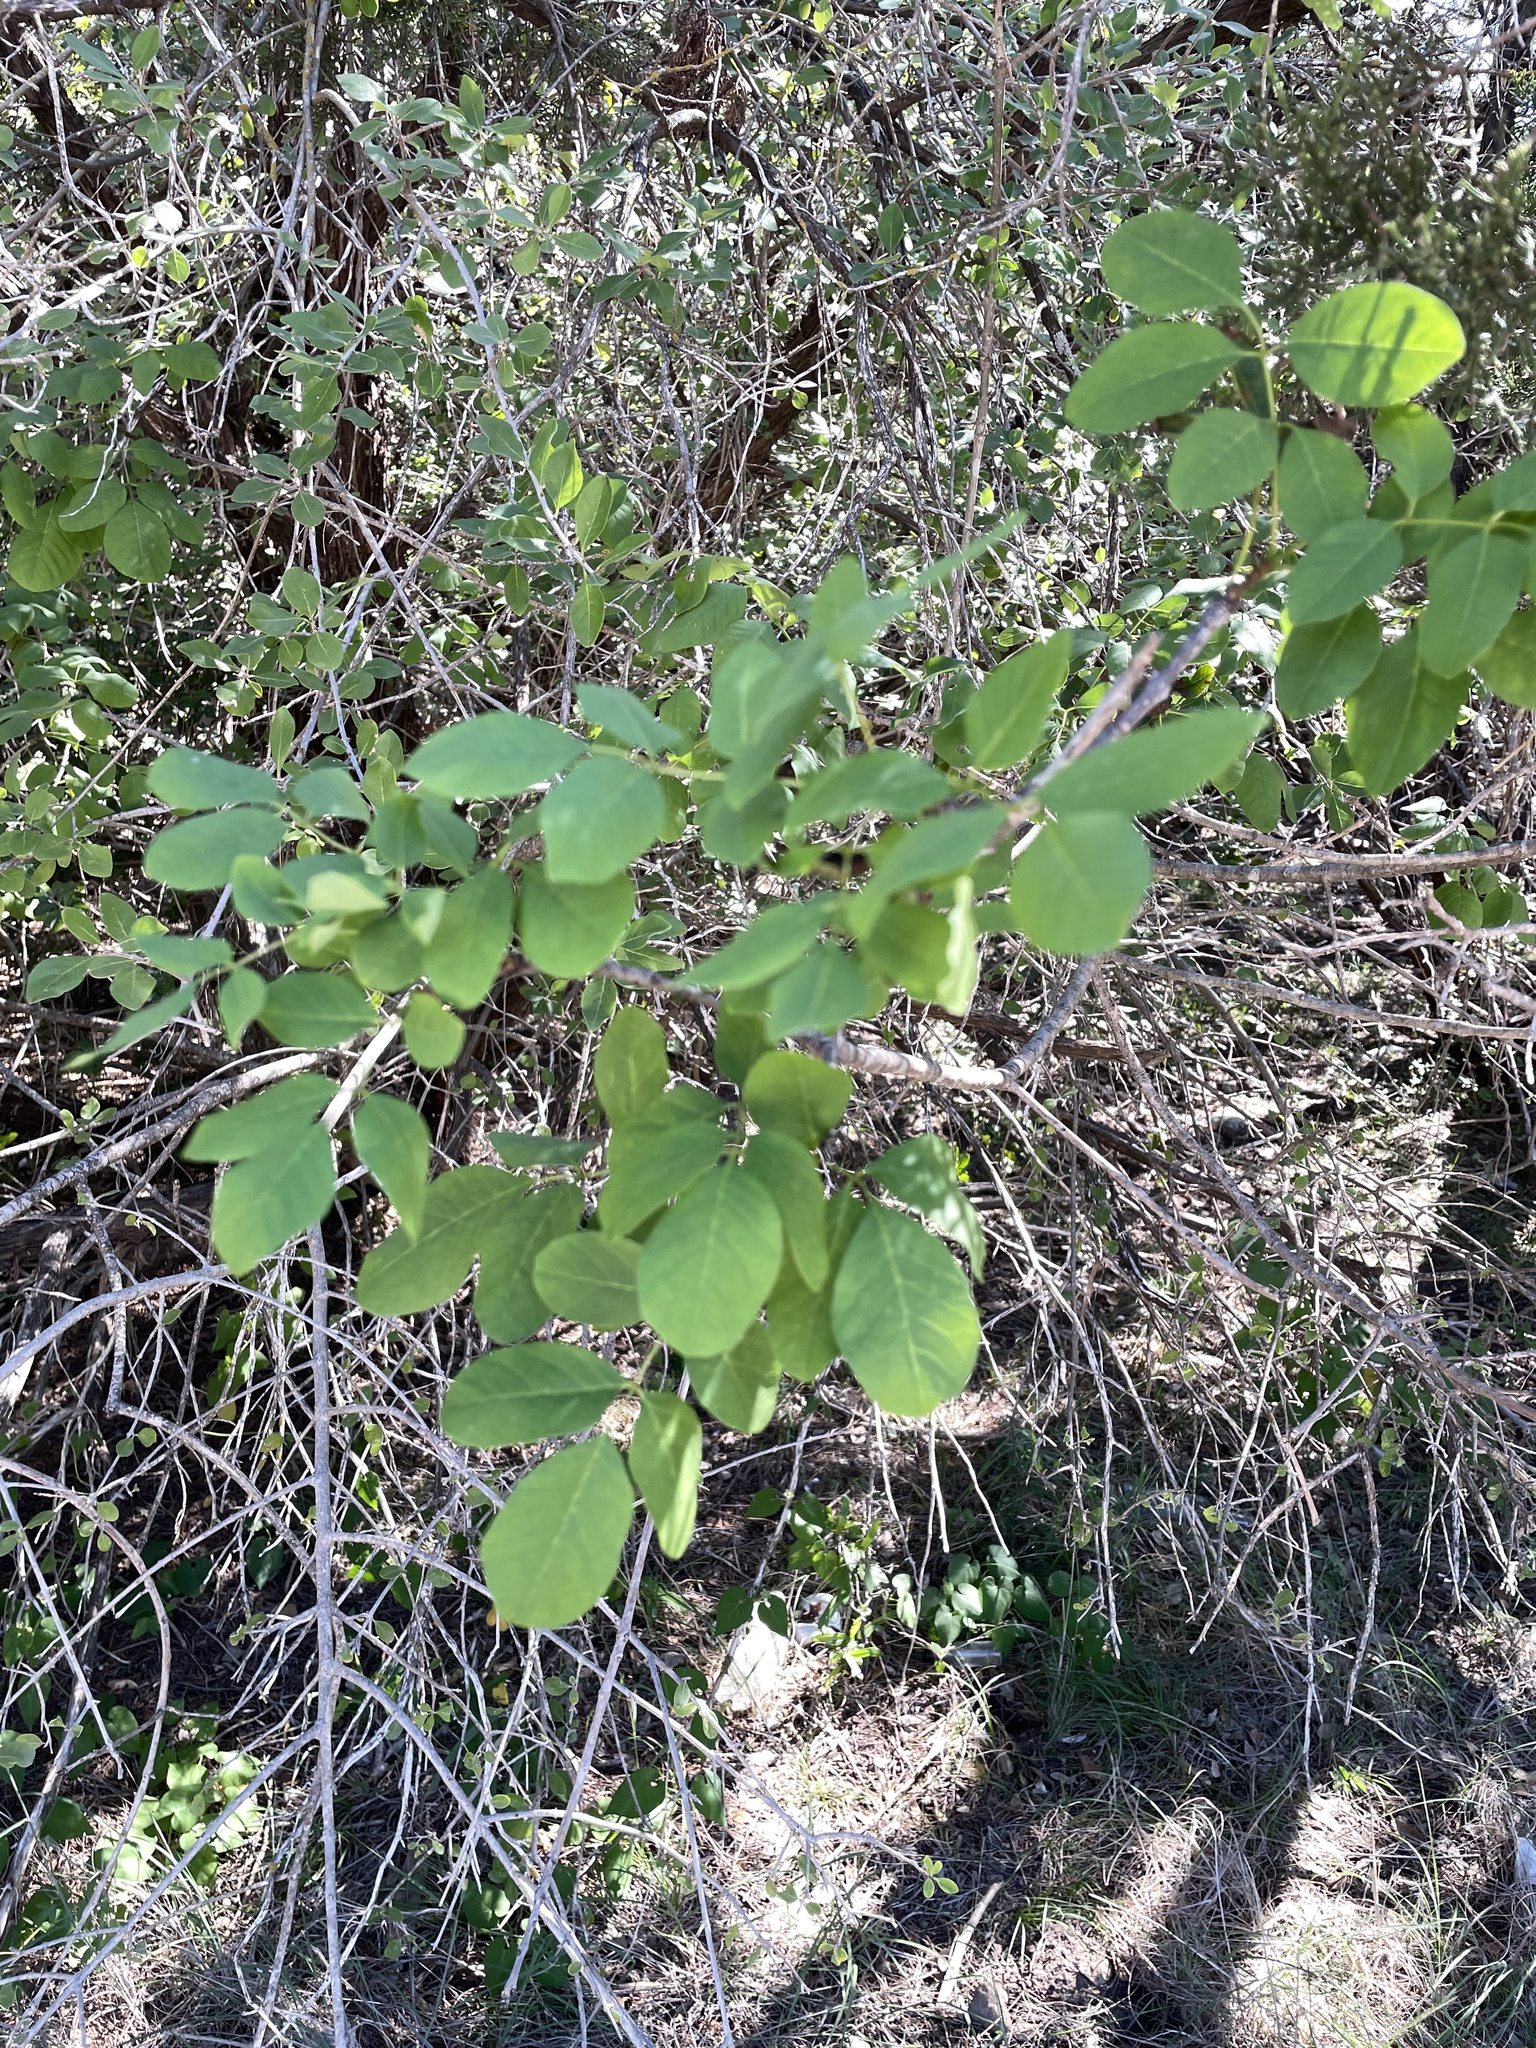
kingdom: Plantae
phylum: Tracheophyta
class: Magnoliopsida
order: Lamiales
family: Oleaceae
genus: Fraxinus
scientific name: Fraxinus albicans
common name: Texas ash
